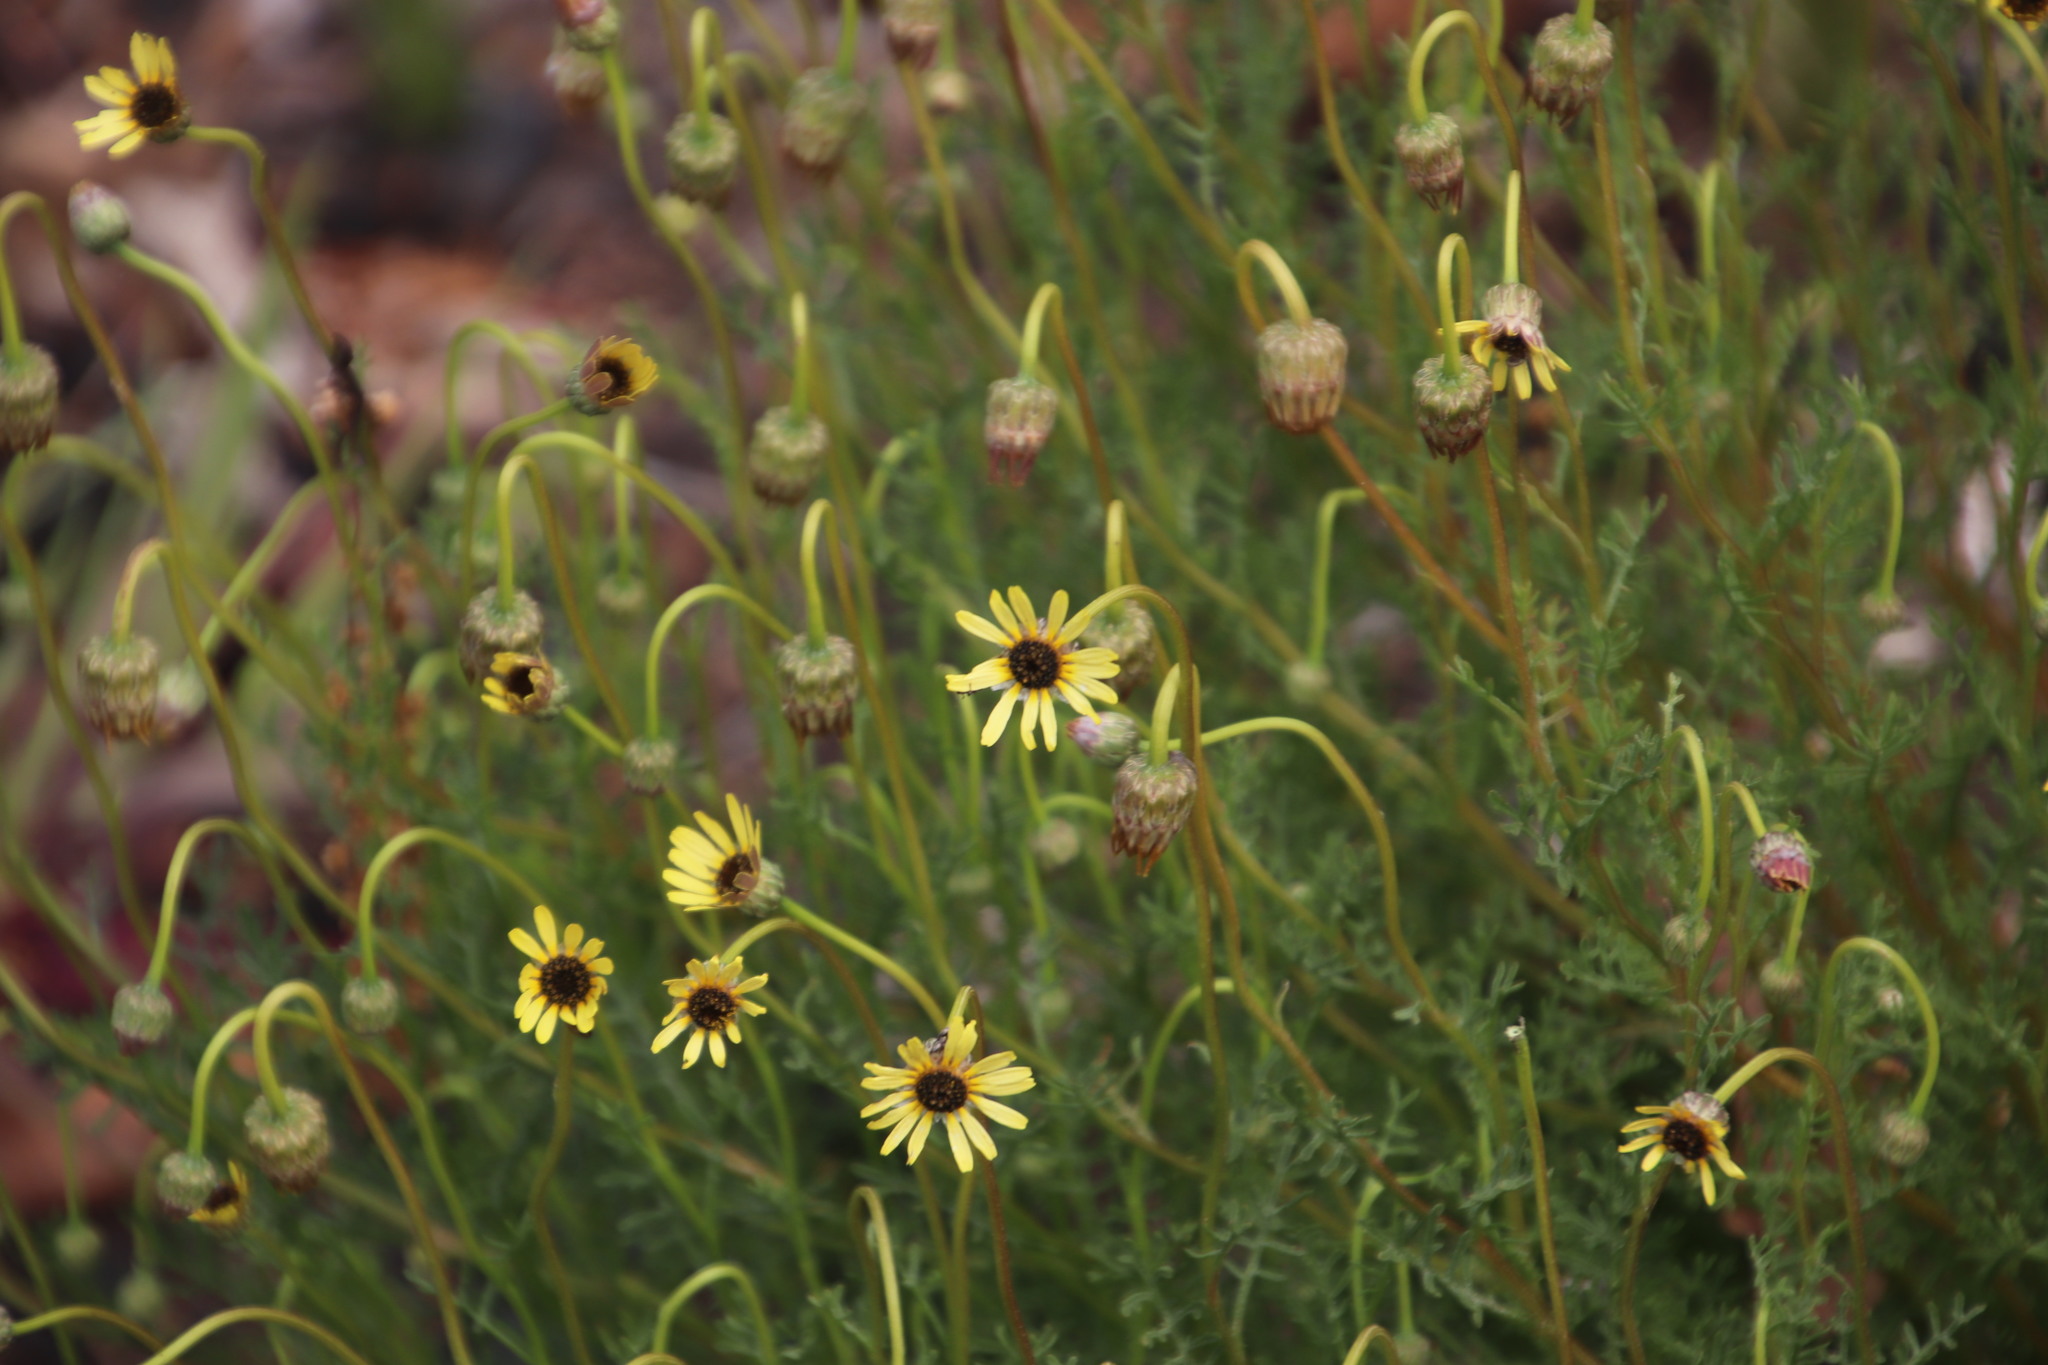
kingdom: Plantae
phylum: Tracheophyta
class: Magnoliopsida
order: Asterales
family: Asteraceae
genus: Ursinia
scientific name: Ursinia anthemoides
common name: Ursinia
